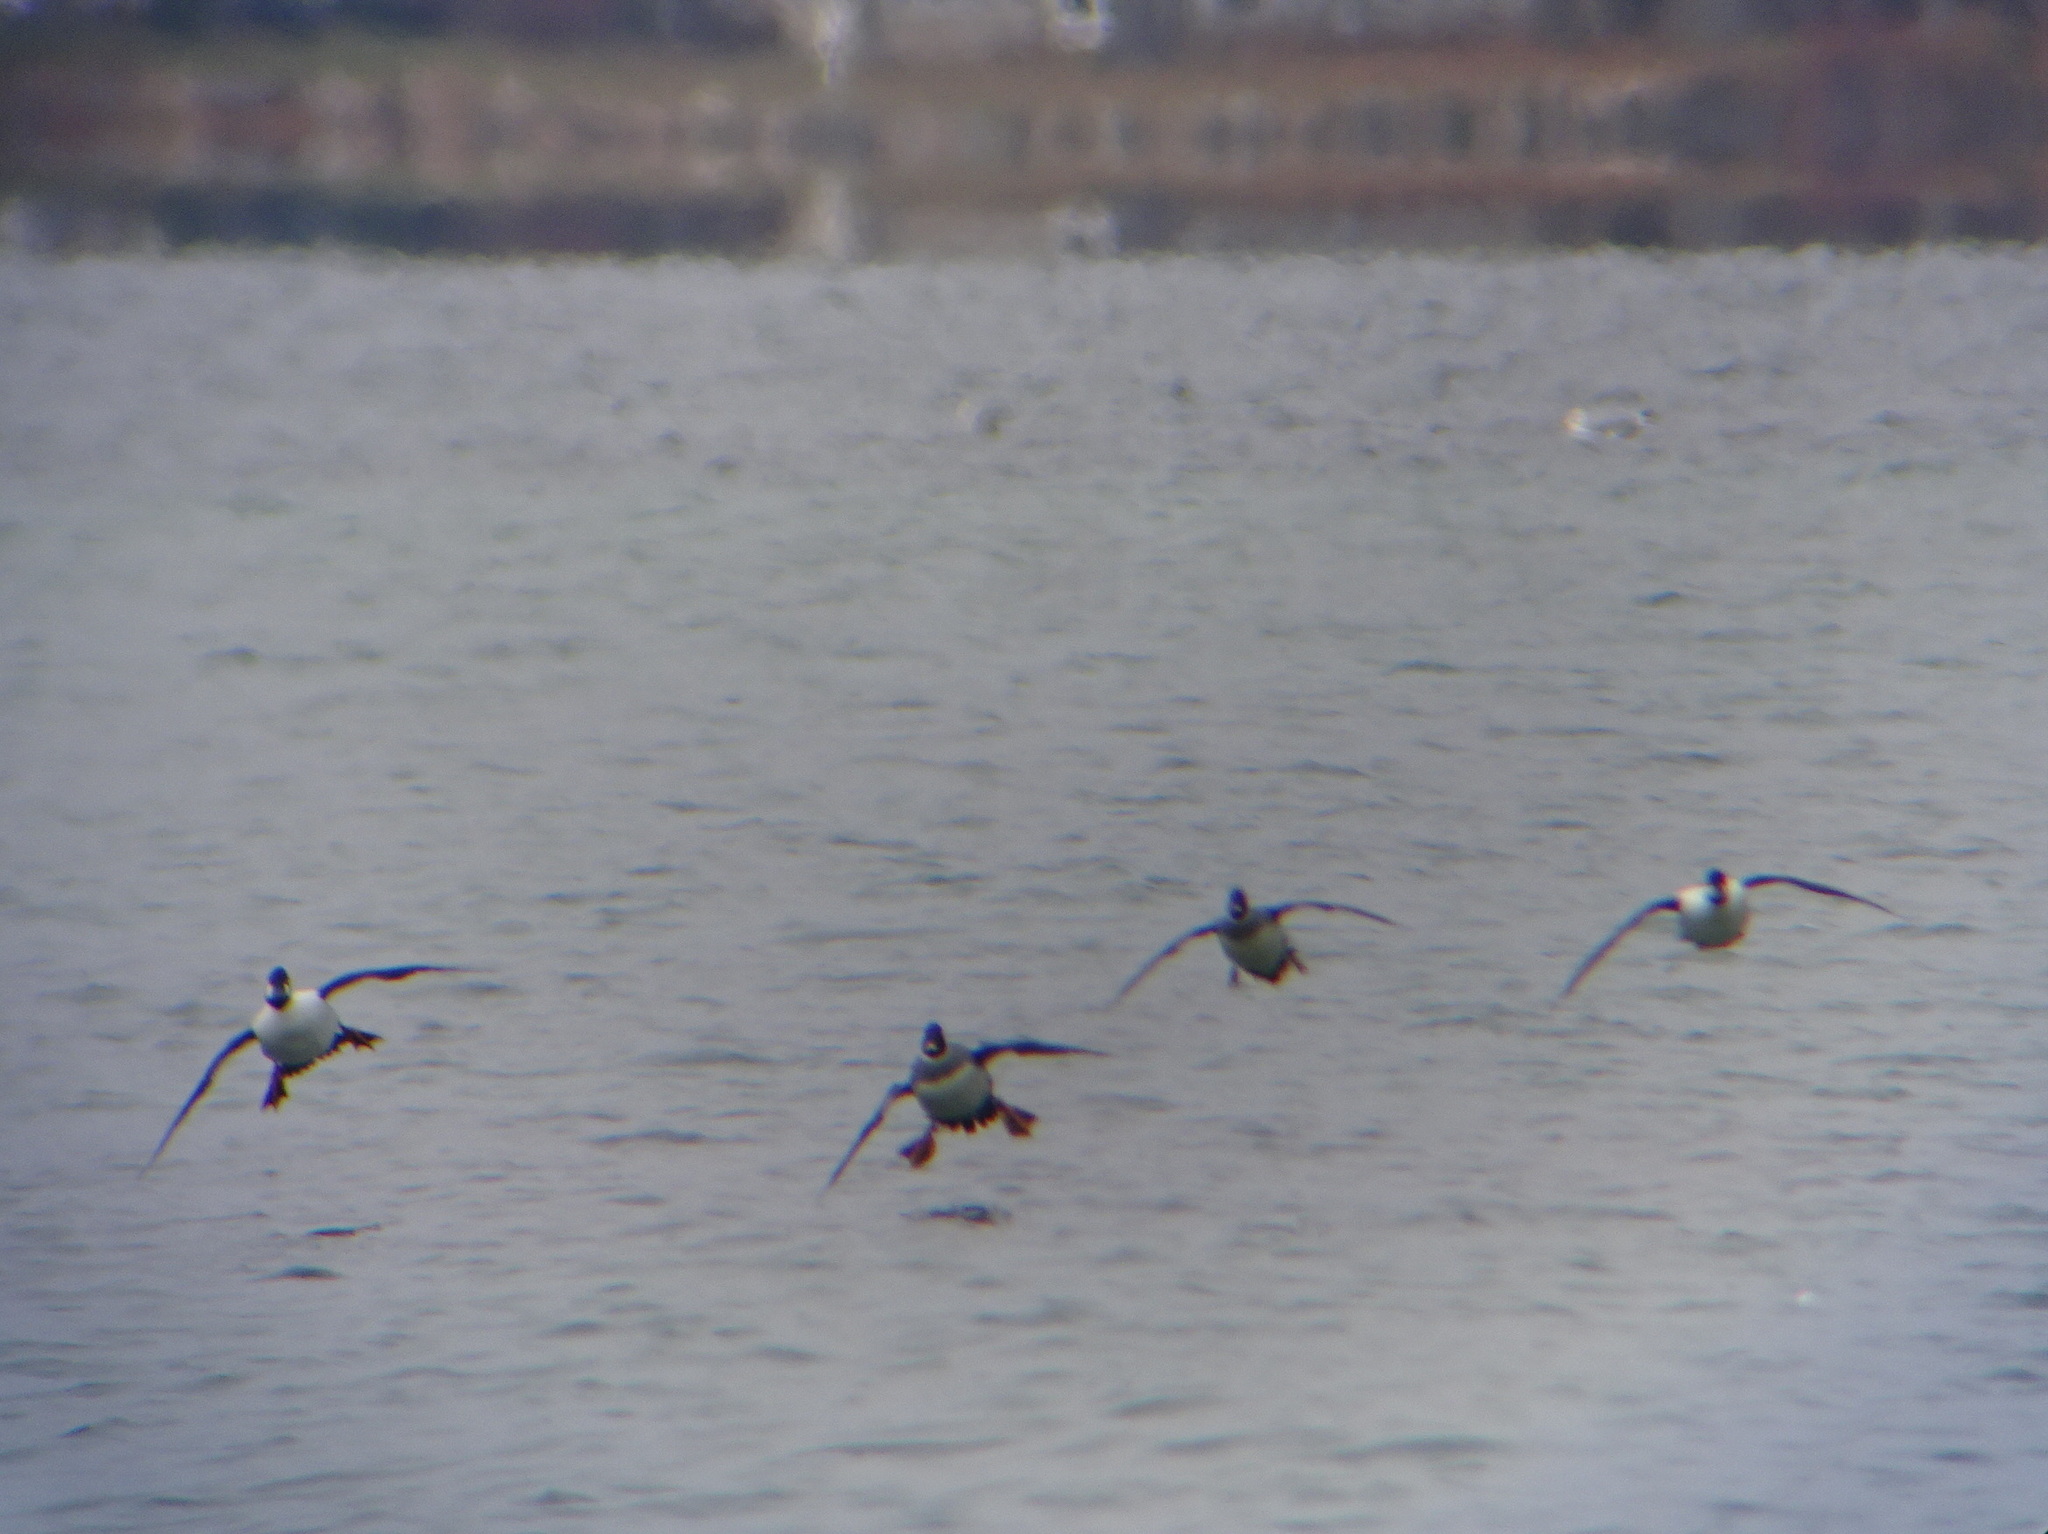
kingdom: Animalia
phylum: Chordata
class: Aves
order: Anseriformes
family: Anatidae
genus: Bucephala
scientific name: Bucephala clangula
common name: Common goldeneye
